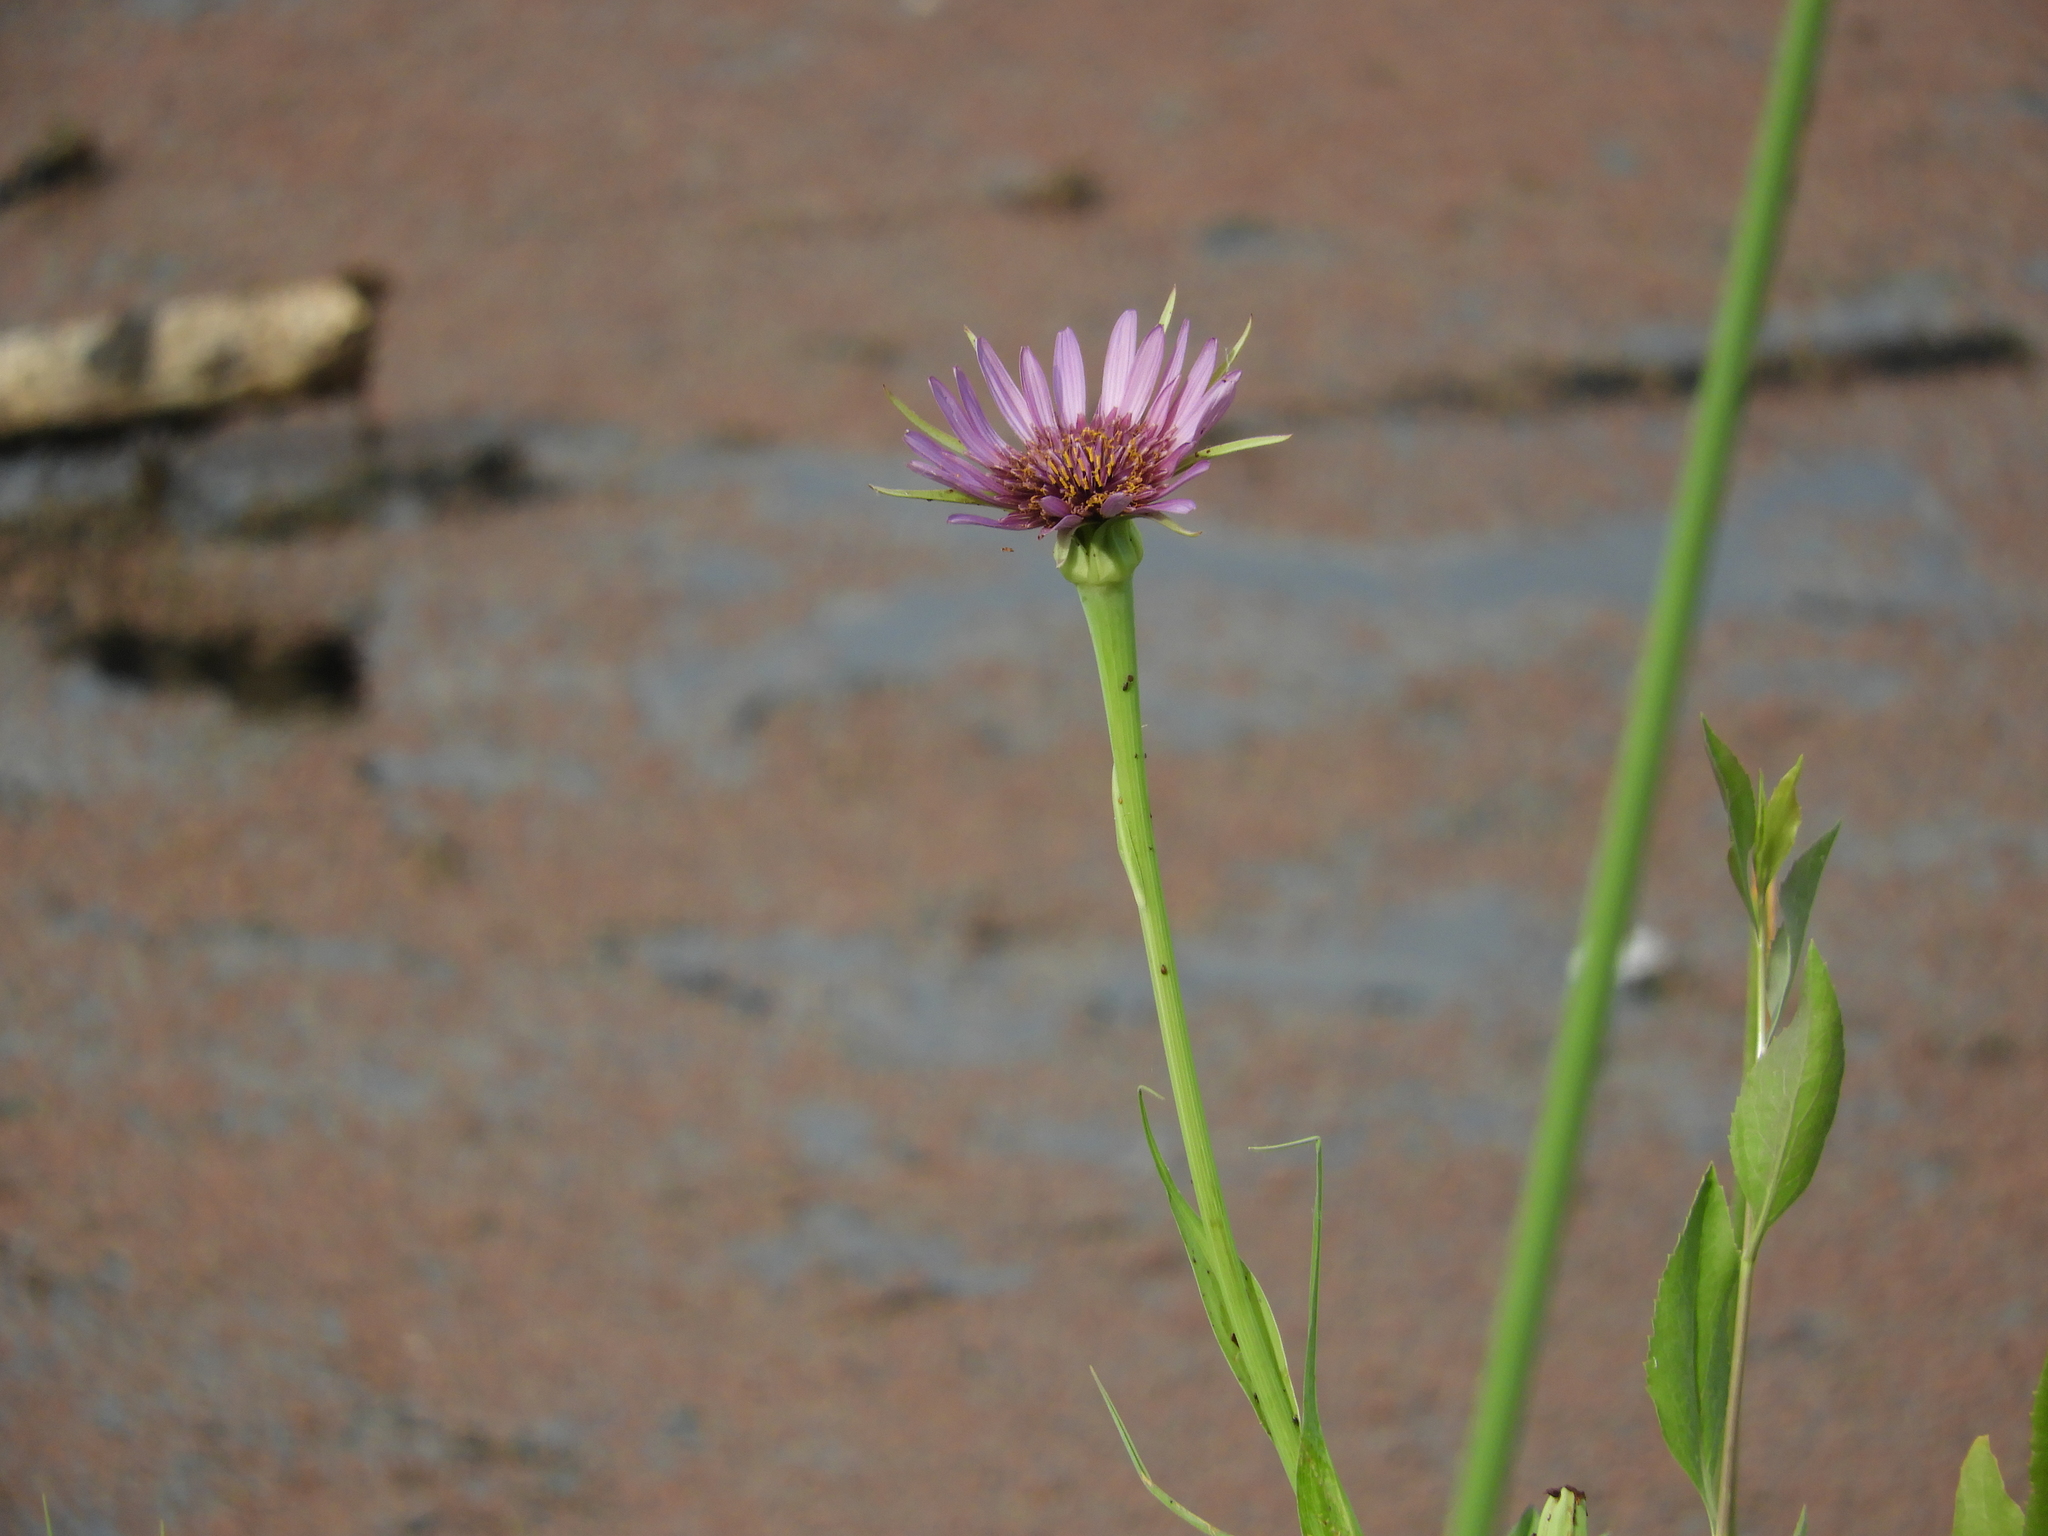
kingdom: Plantae
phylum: Tracheophyta
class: Magnoliopsida
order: Asterales
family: Asteraceae
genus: Tragopogon
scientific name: Tragopogon porrifolius
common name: Salsify
